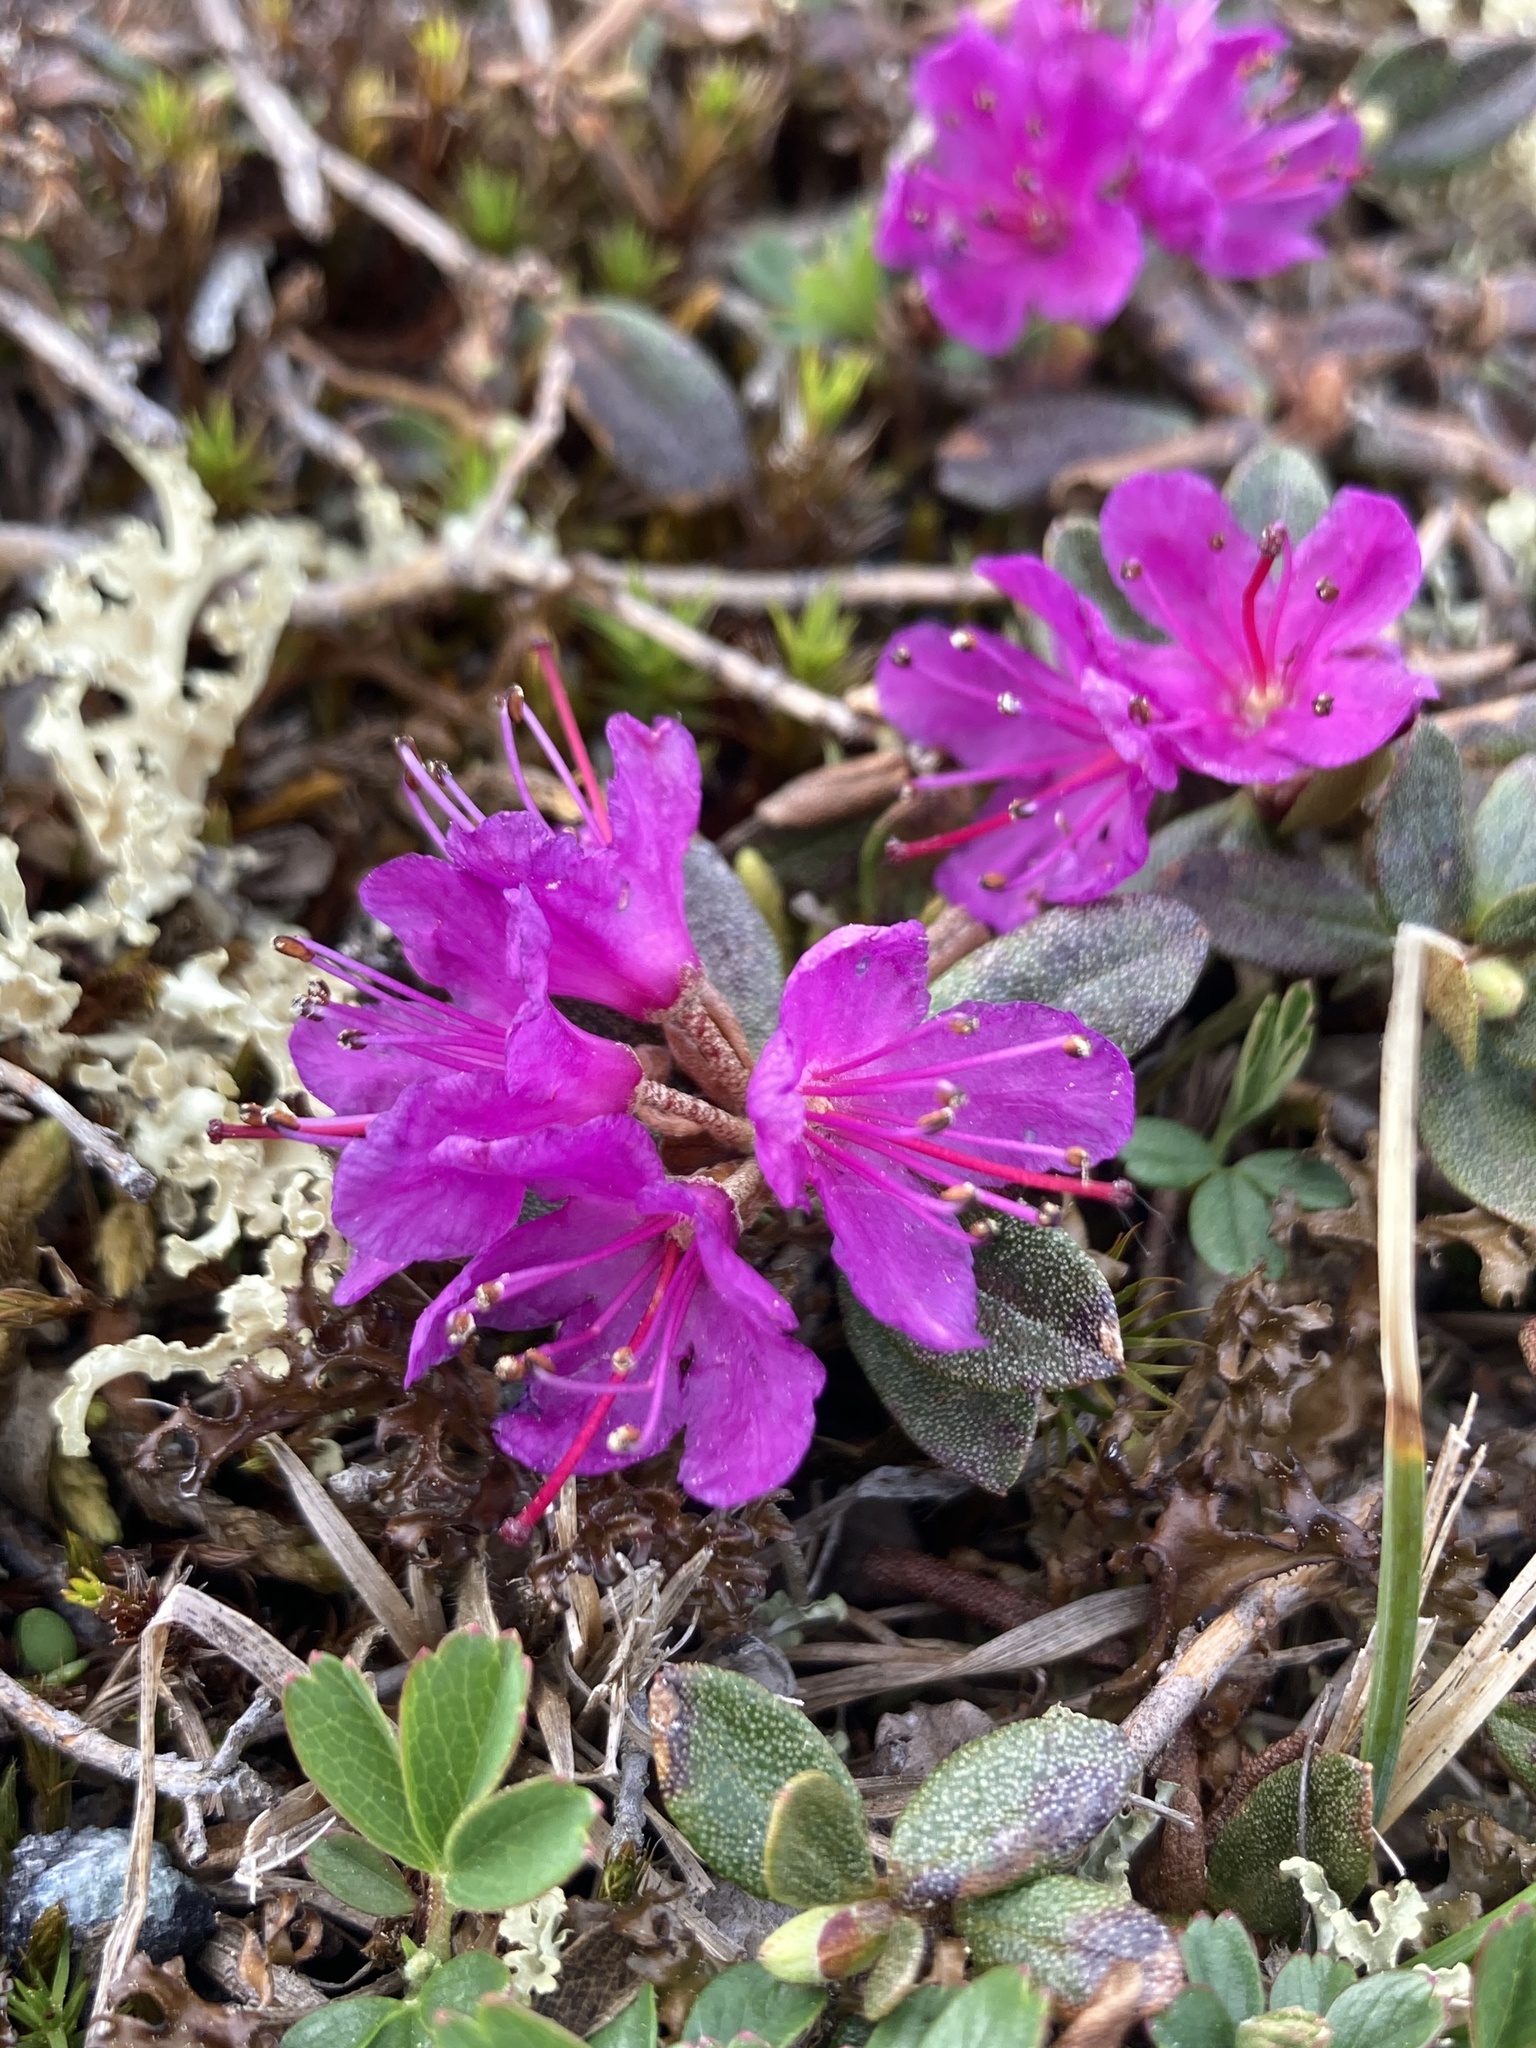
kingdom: Plantae
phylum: Tracheophyta
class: Magnoliopsida
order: Ericales
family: Ericaceae
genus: Rhododendron
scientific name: Rhododendron lapponicum
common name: Lapland rhododendron
